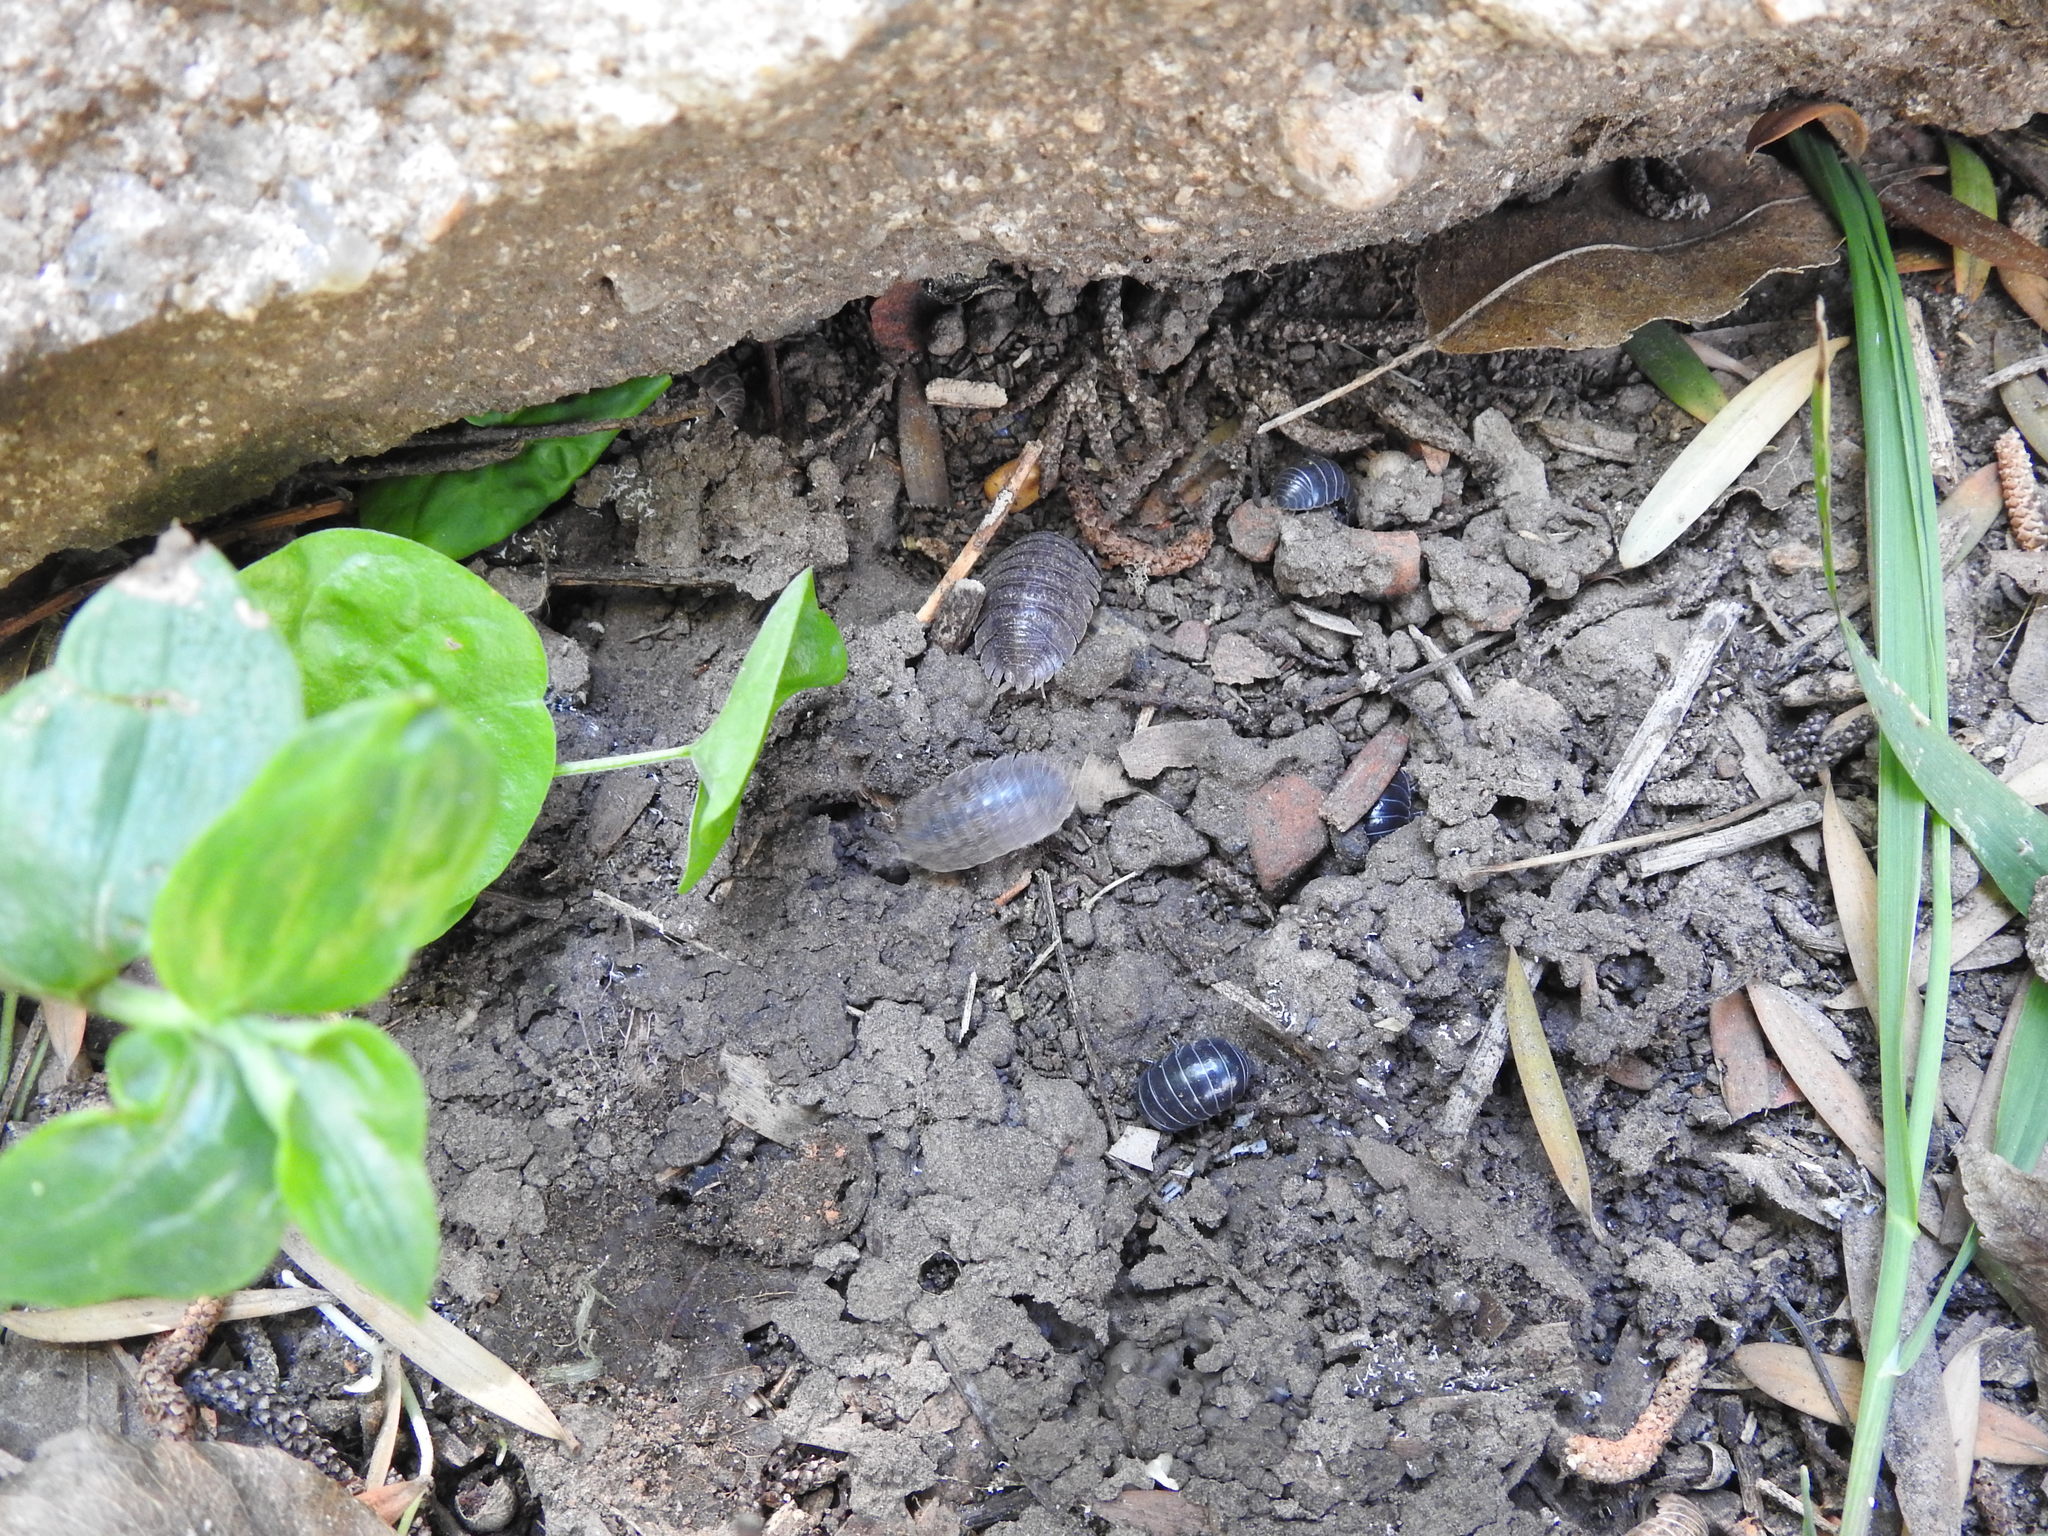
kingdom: Animalia
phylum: Arthropoda
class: Malacostraca
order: Isopoda
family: Armadillidiidae
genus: Armadillidium
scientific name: Armadillidium vulgare
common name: Common pill woodlouse
